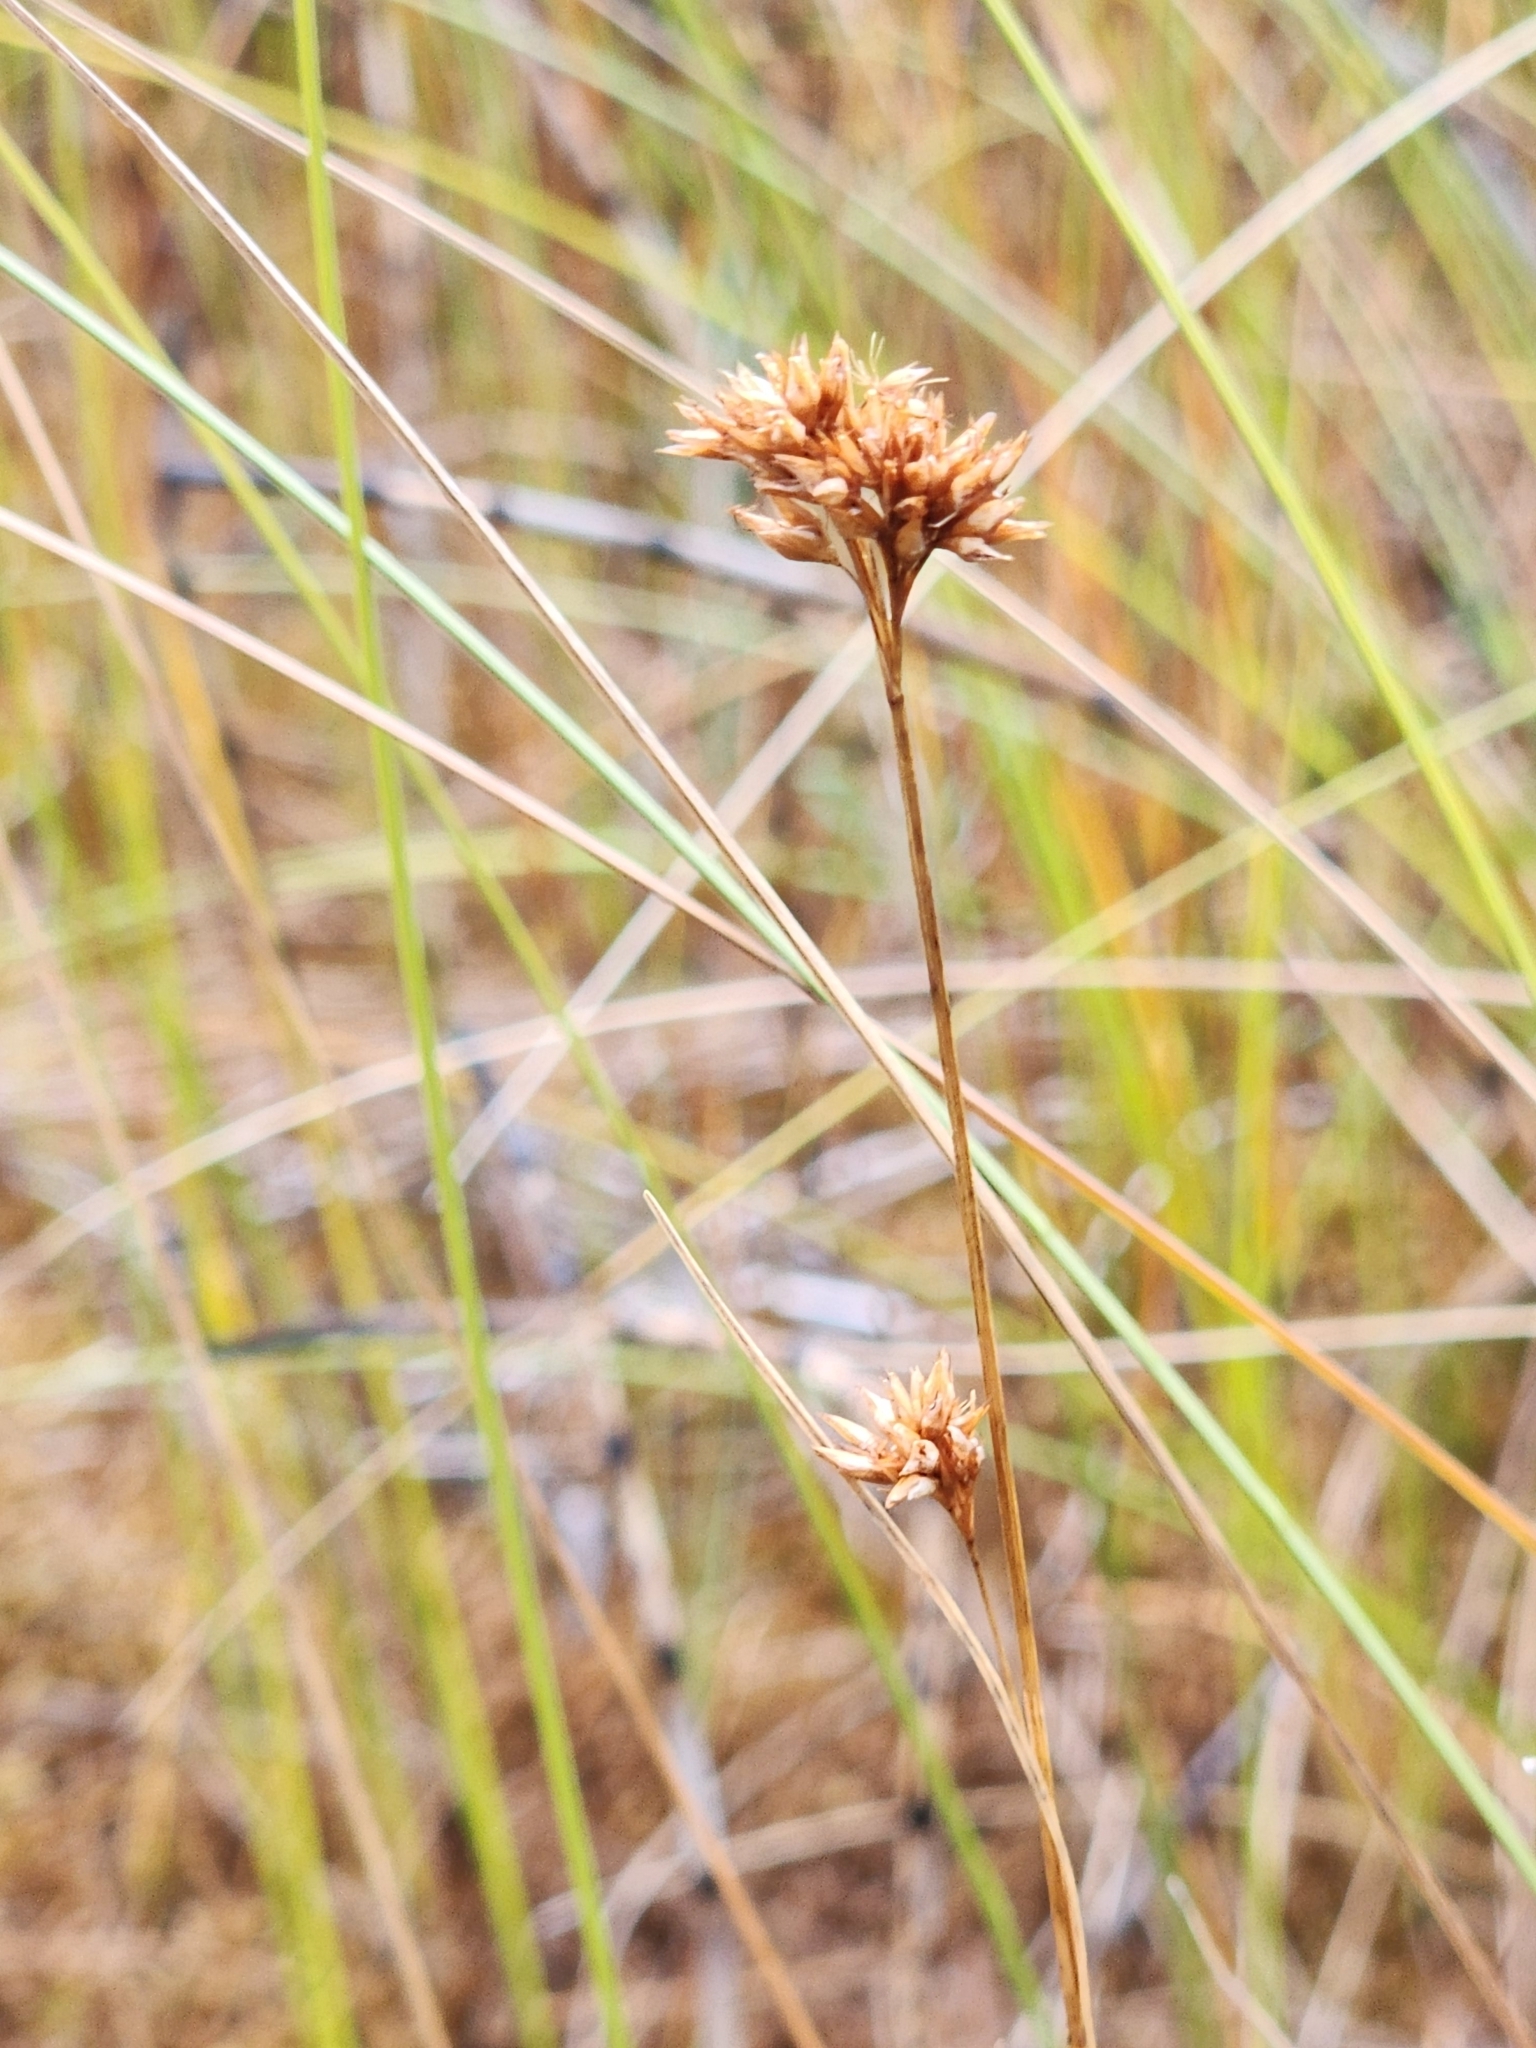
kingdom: Plantae
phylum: Tracheophyta
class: Liliopsida
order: Poales
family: Cyperaceae
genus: Rhynchospora
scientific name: Rhynchospora alba
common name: White beak-sedge
